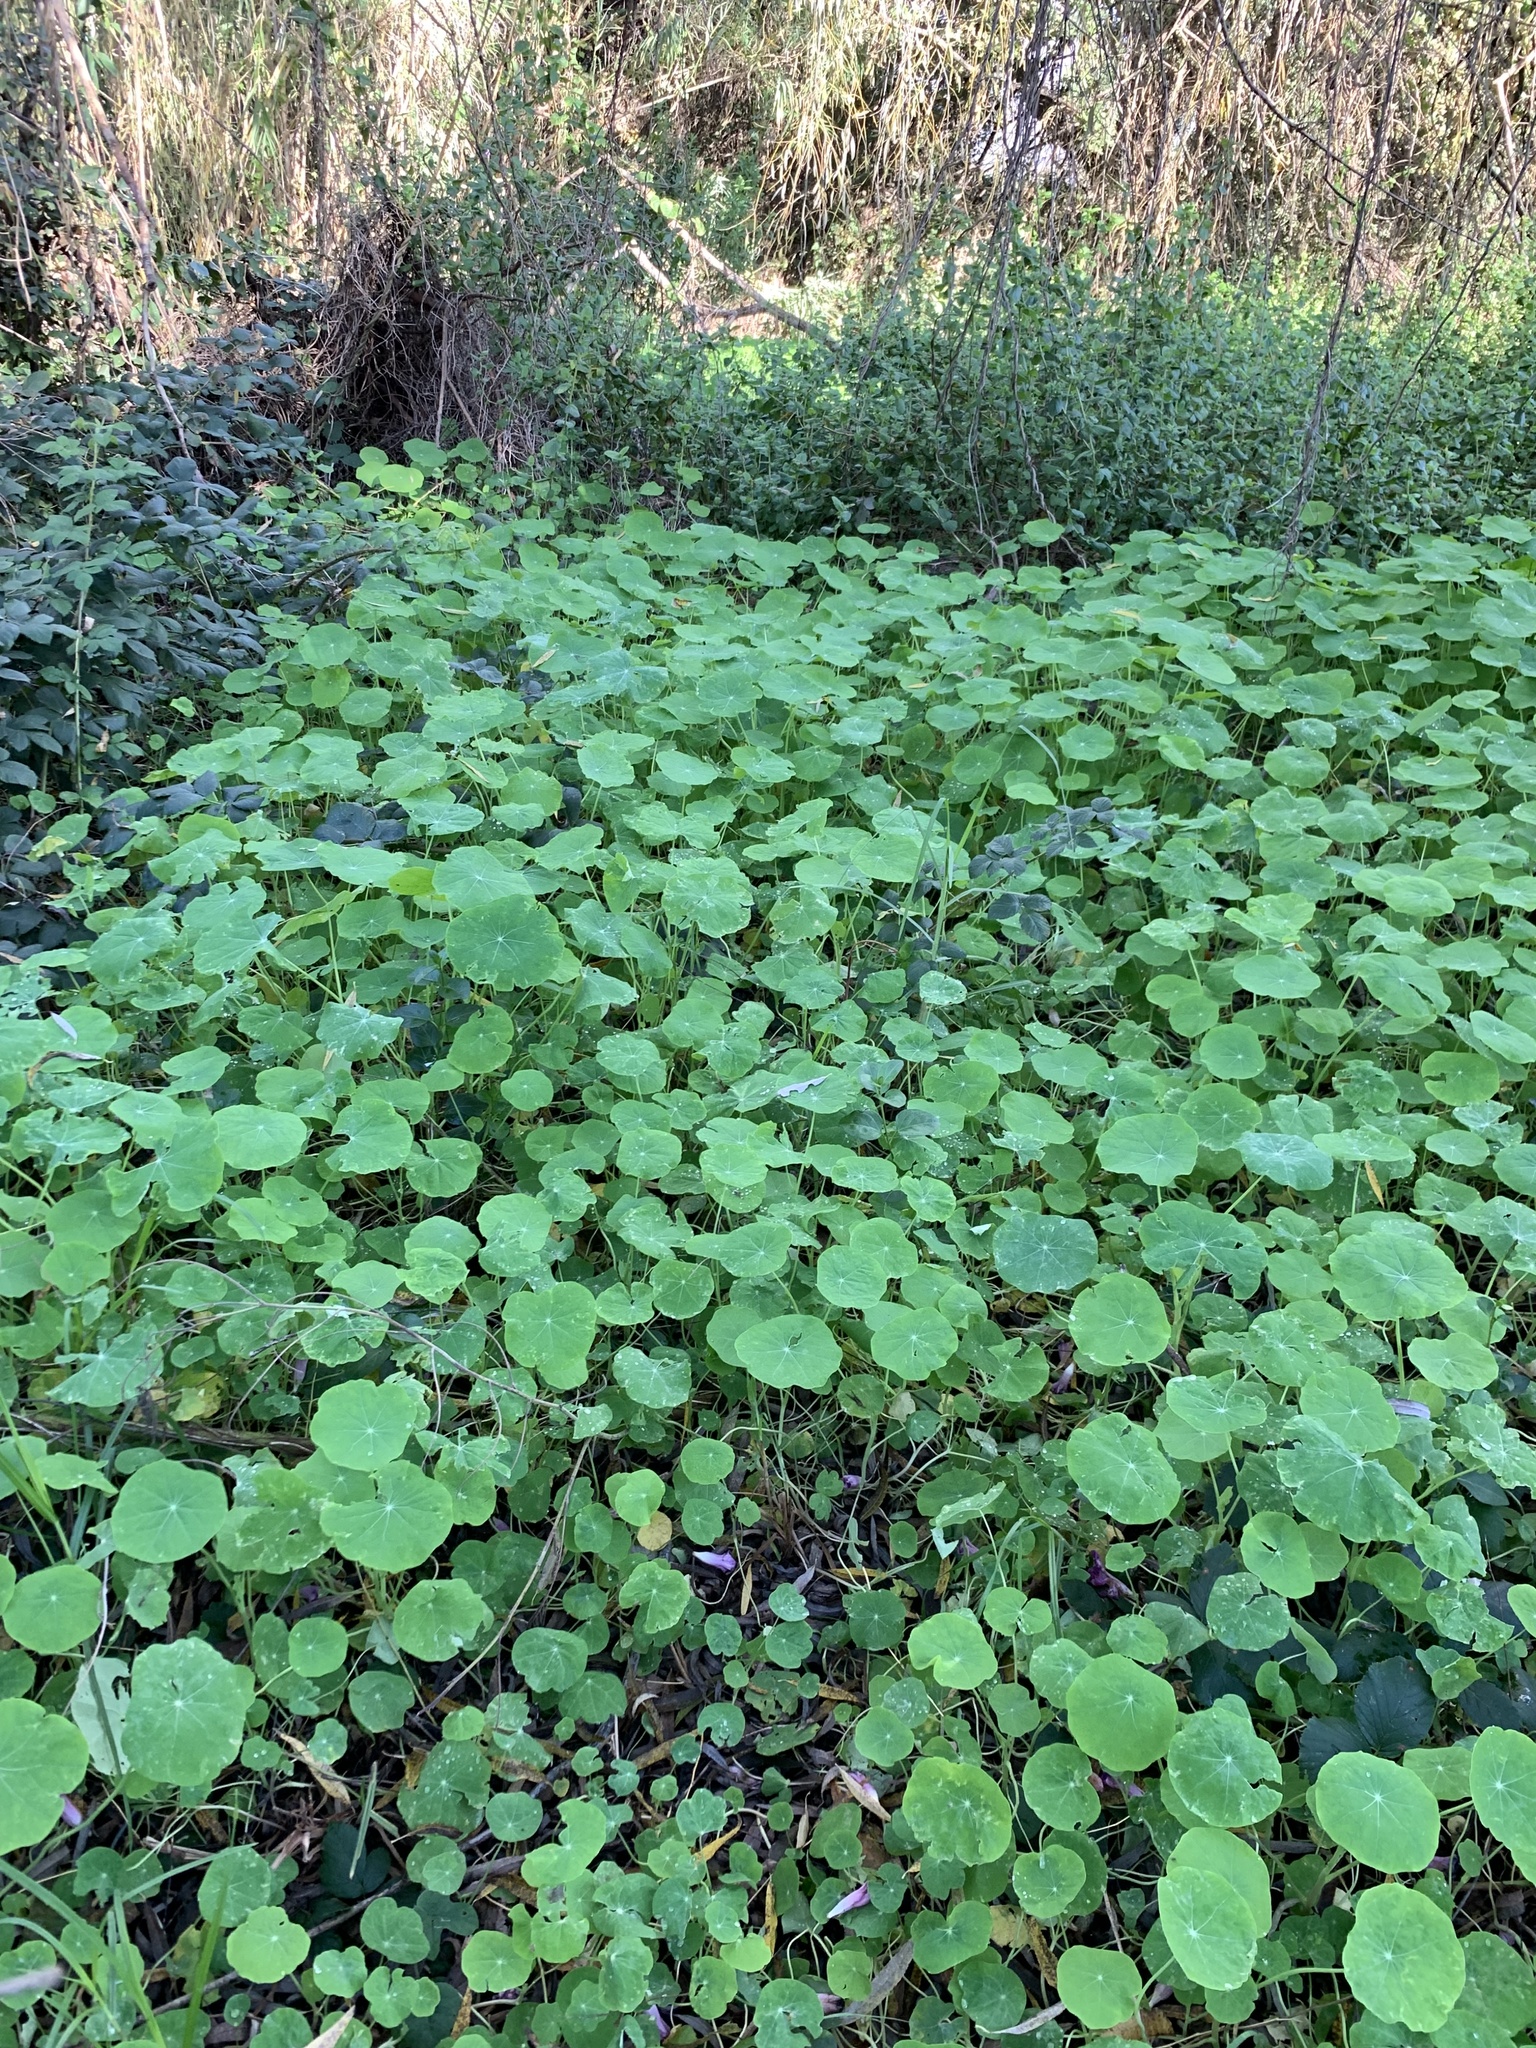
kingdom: Plantae
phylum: Tracheophyta
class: Magnoliopsida
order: Brassicales
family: Tropaeolaceae
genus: Tropaeolum
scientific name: Tropaeolum majus
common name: Nasturtium
